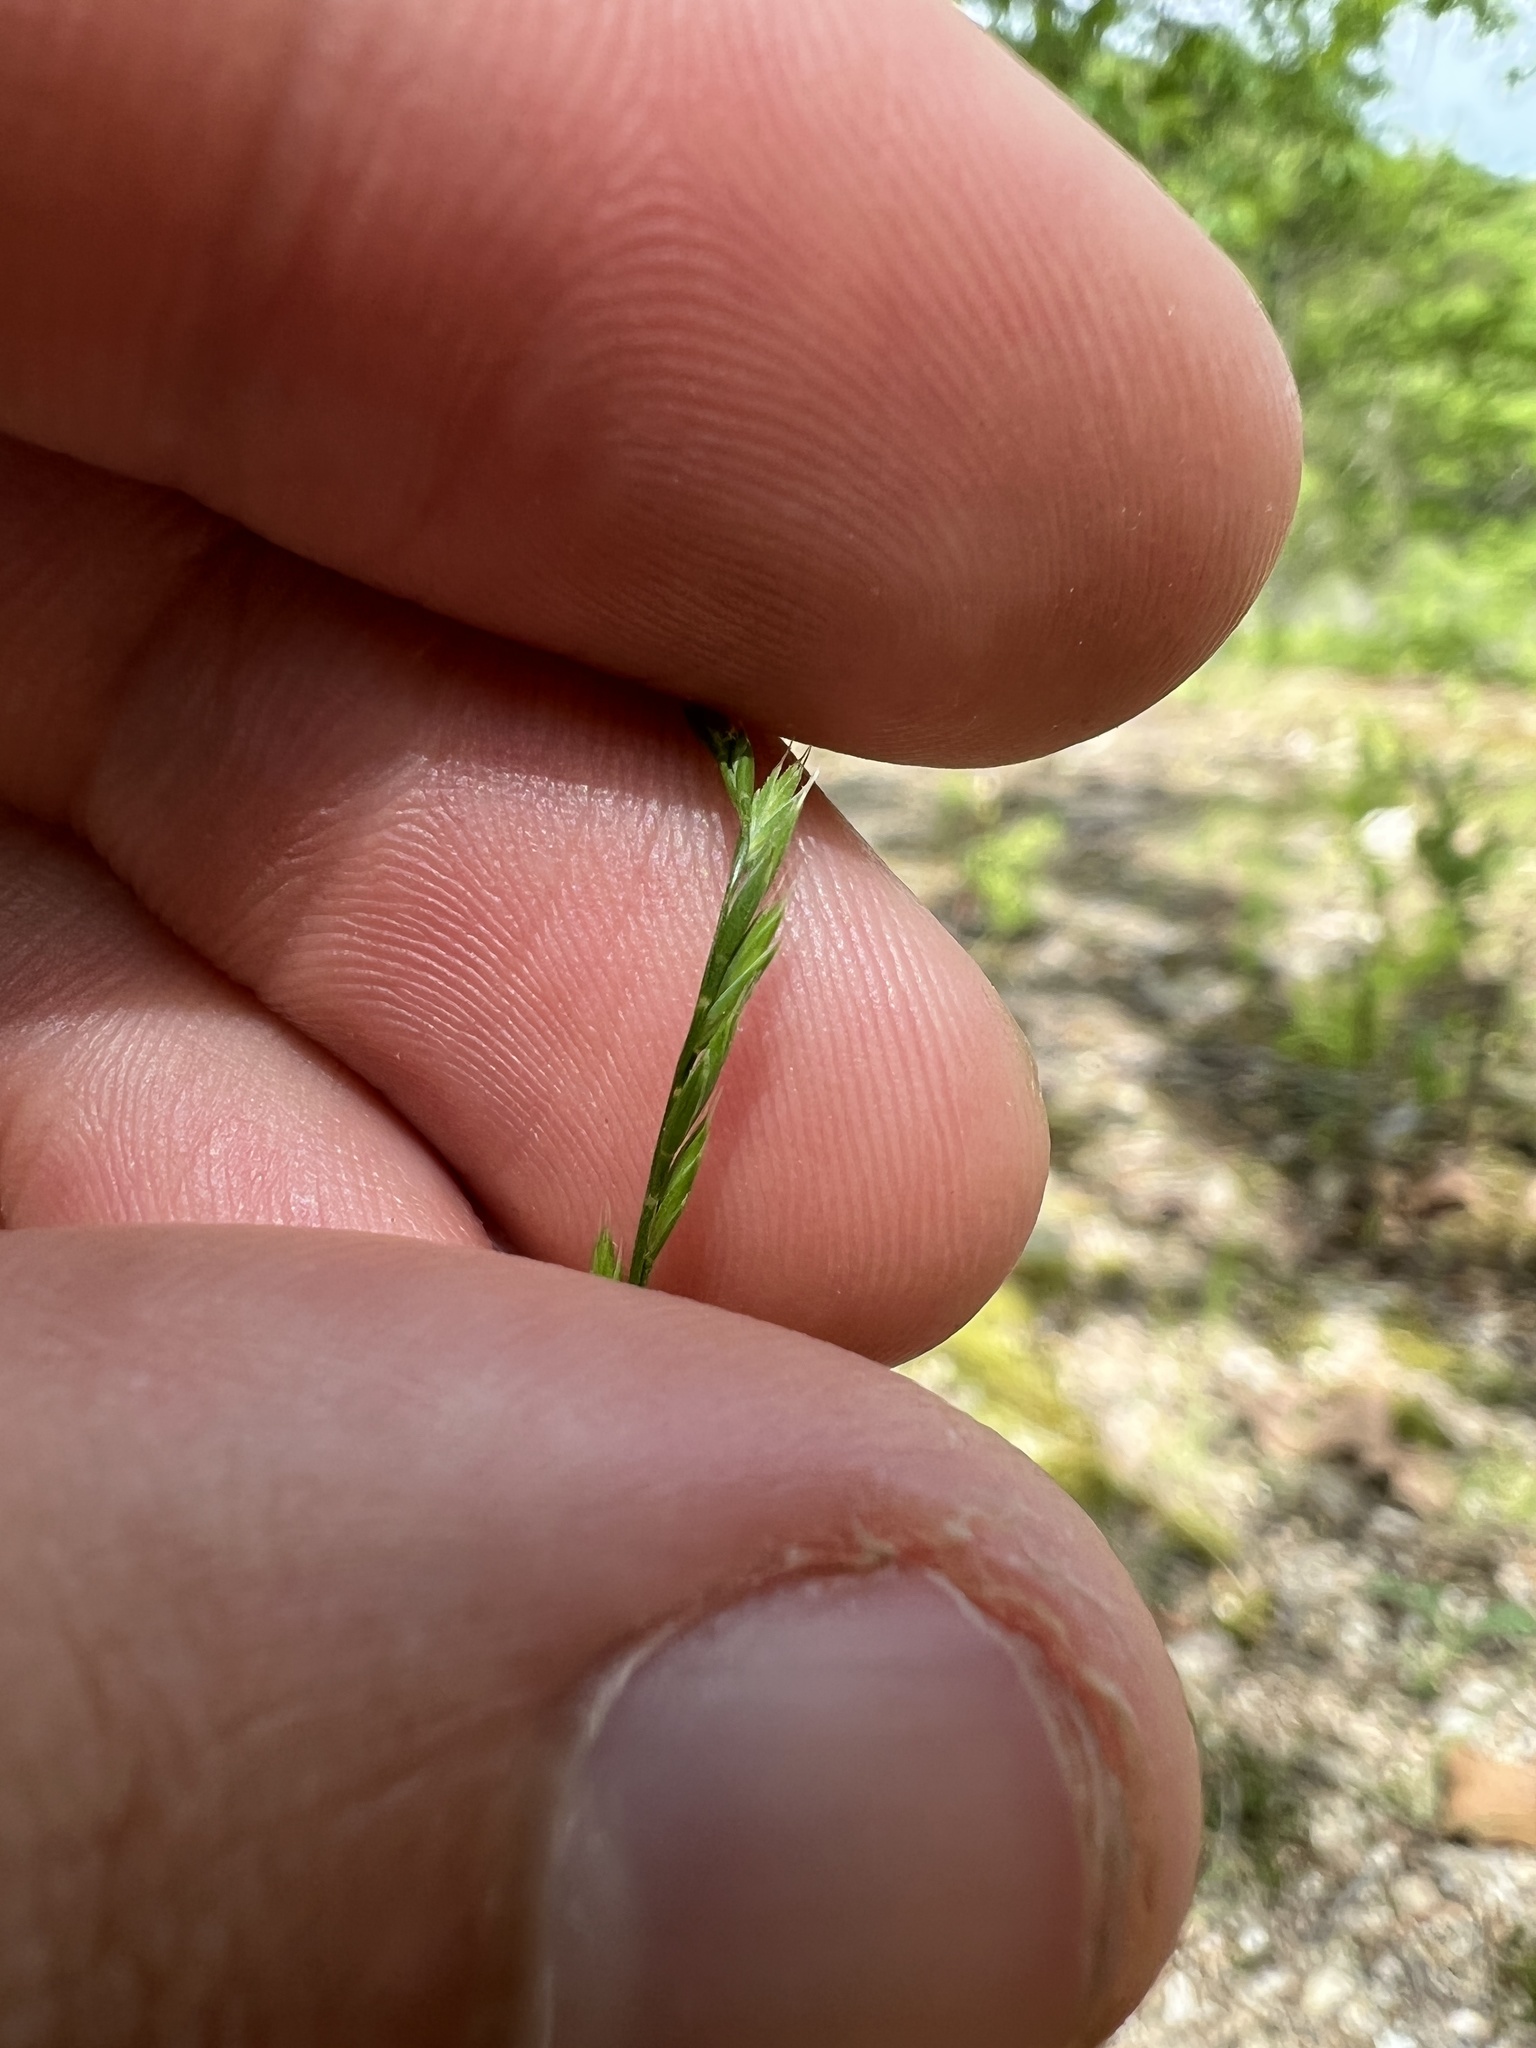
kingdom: Plantae
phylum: Tracheophyta
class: Liliopsida
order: Poales
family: Poaceae
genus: Festuca
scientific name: Festuca octoflora
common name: Sixweeks grass
